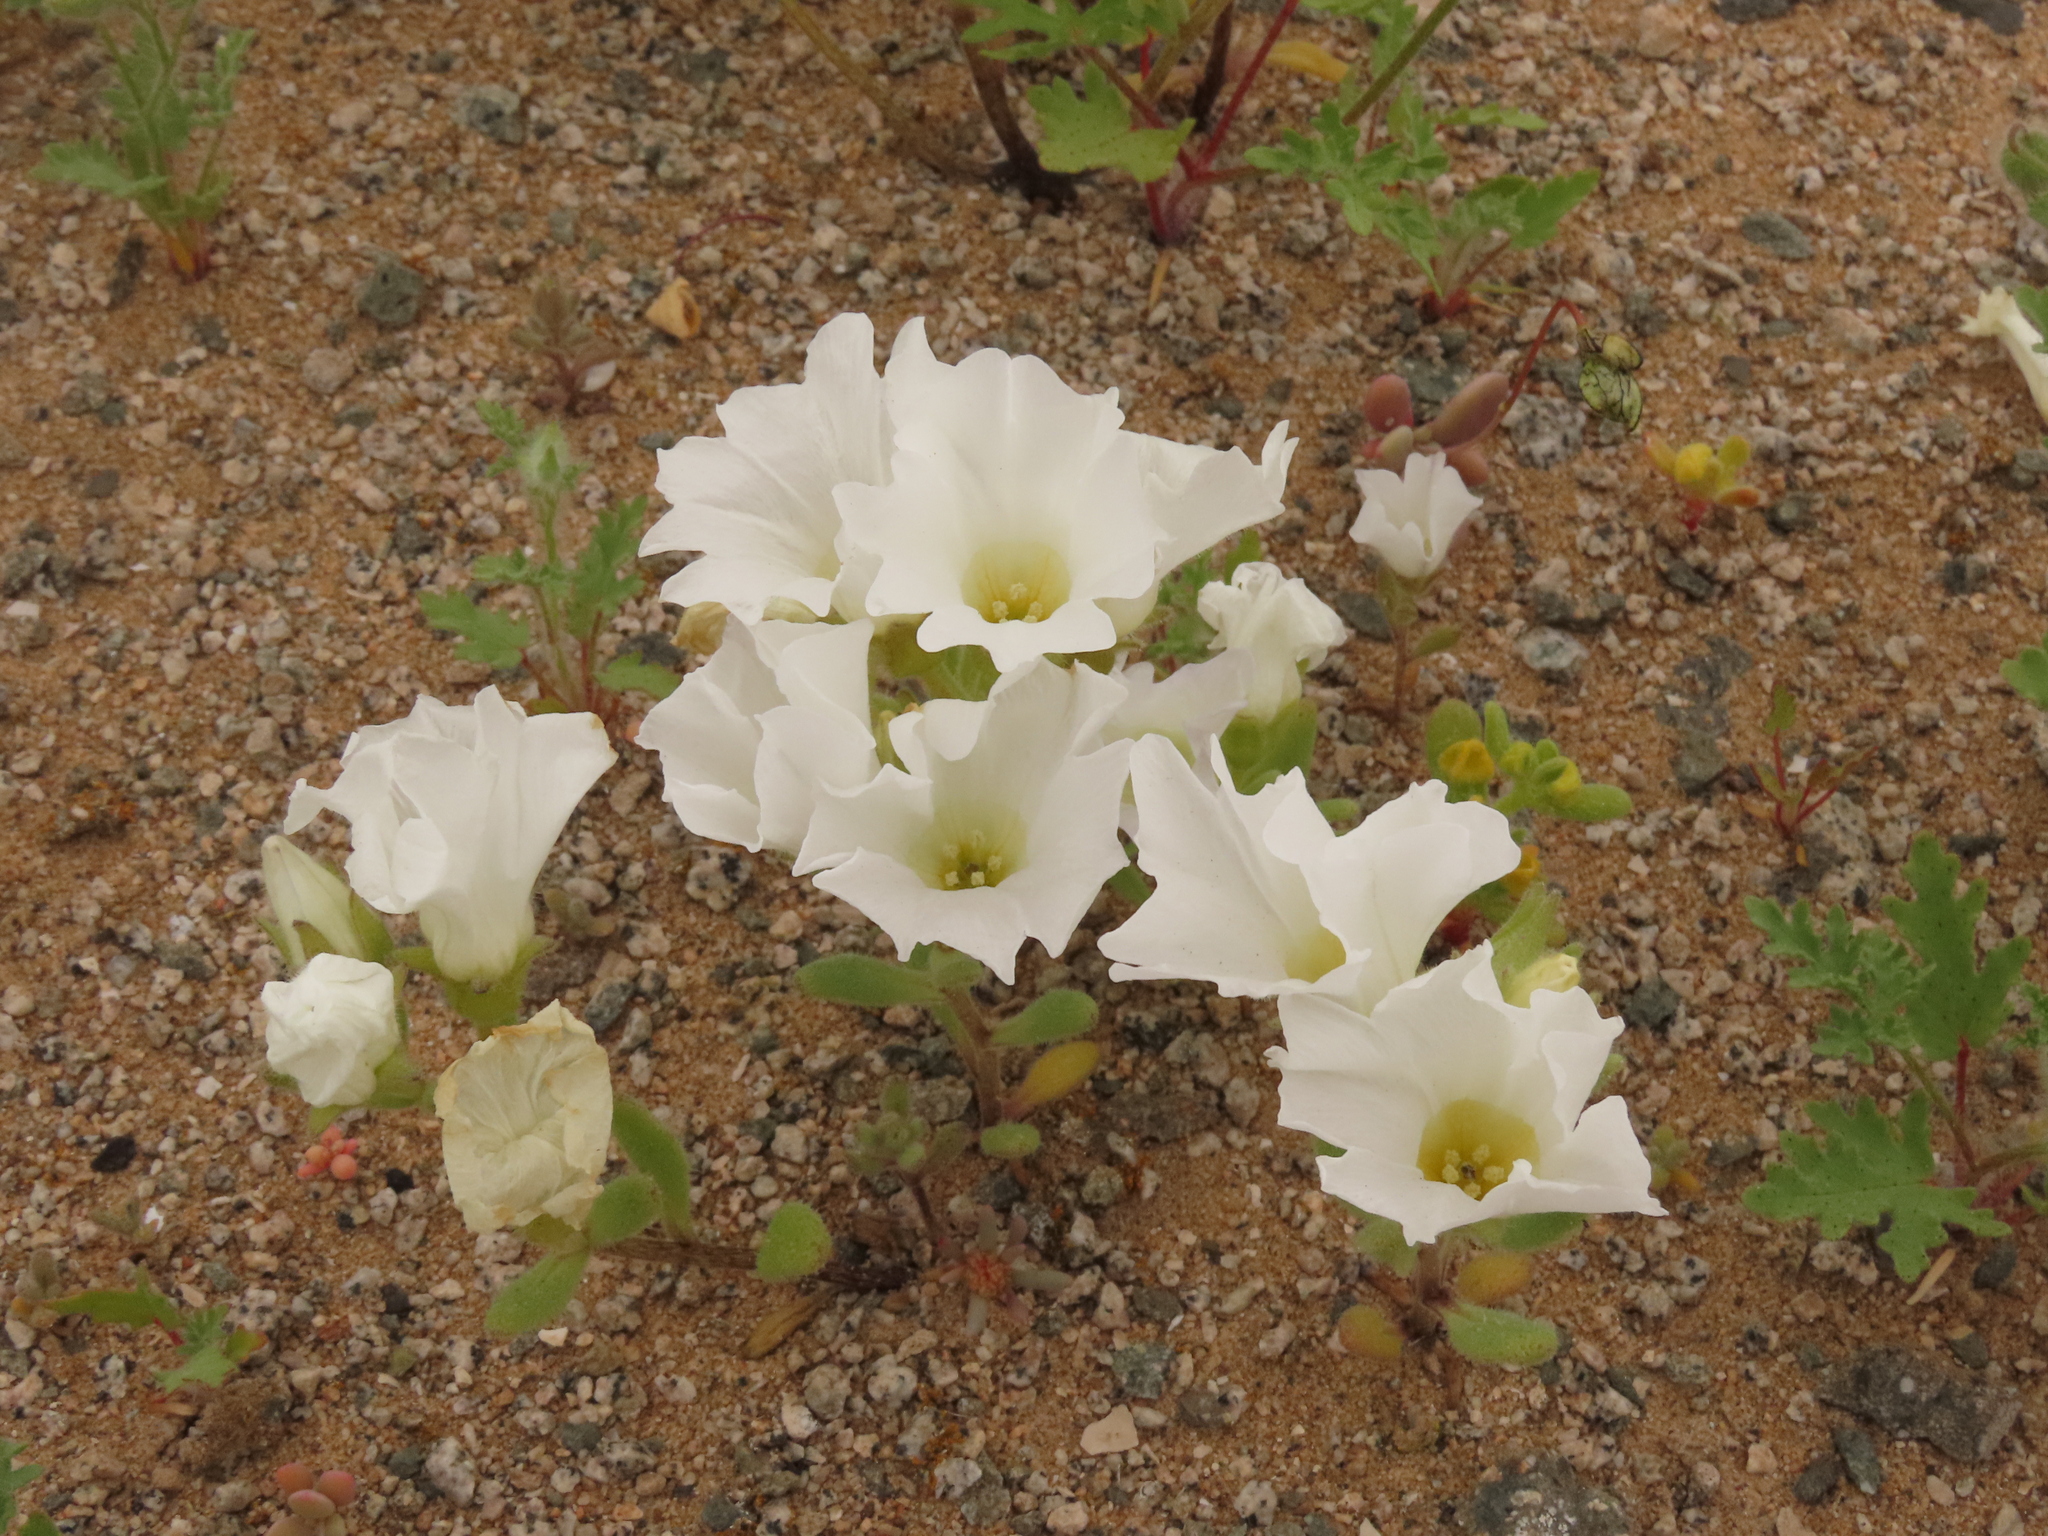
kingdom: Plantae
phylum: Tracheophyta
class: Magnoliopsida
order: Solanales
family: Solanaceae
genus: Nolana
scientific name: Nolana baccata
